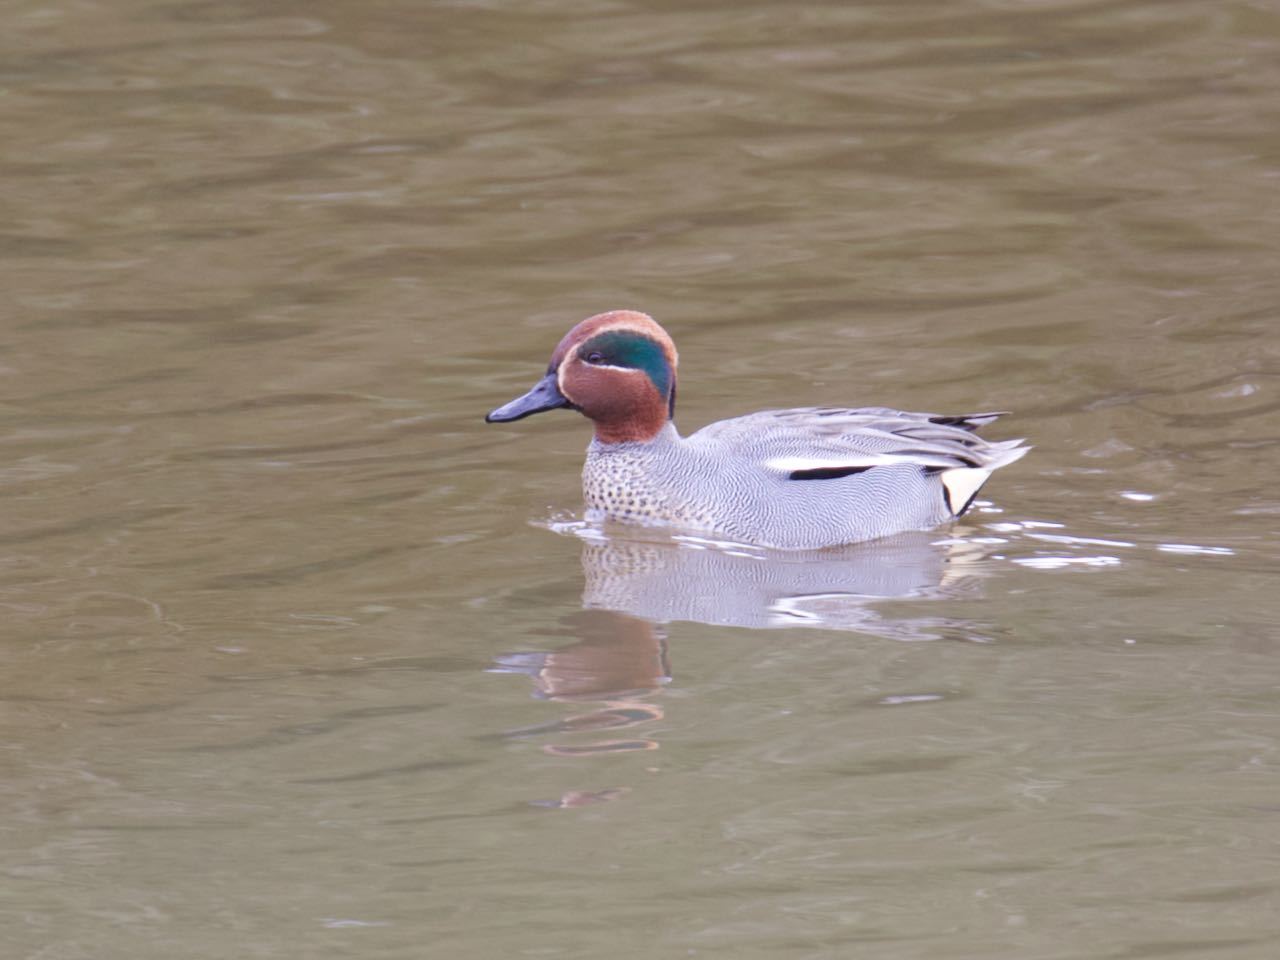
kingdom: Animalia
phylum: Chordata
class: Aves
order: Anseriformes
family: Anatidae
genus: Anas
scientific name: Anas crecca
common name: Eurasian teal
